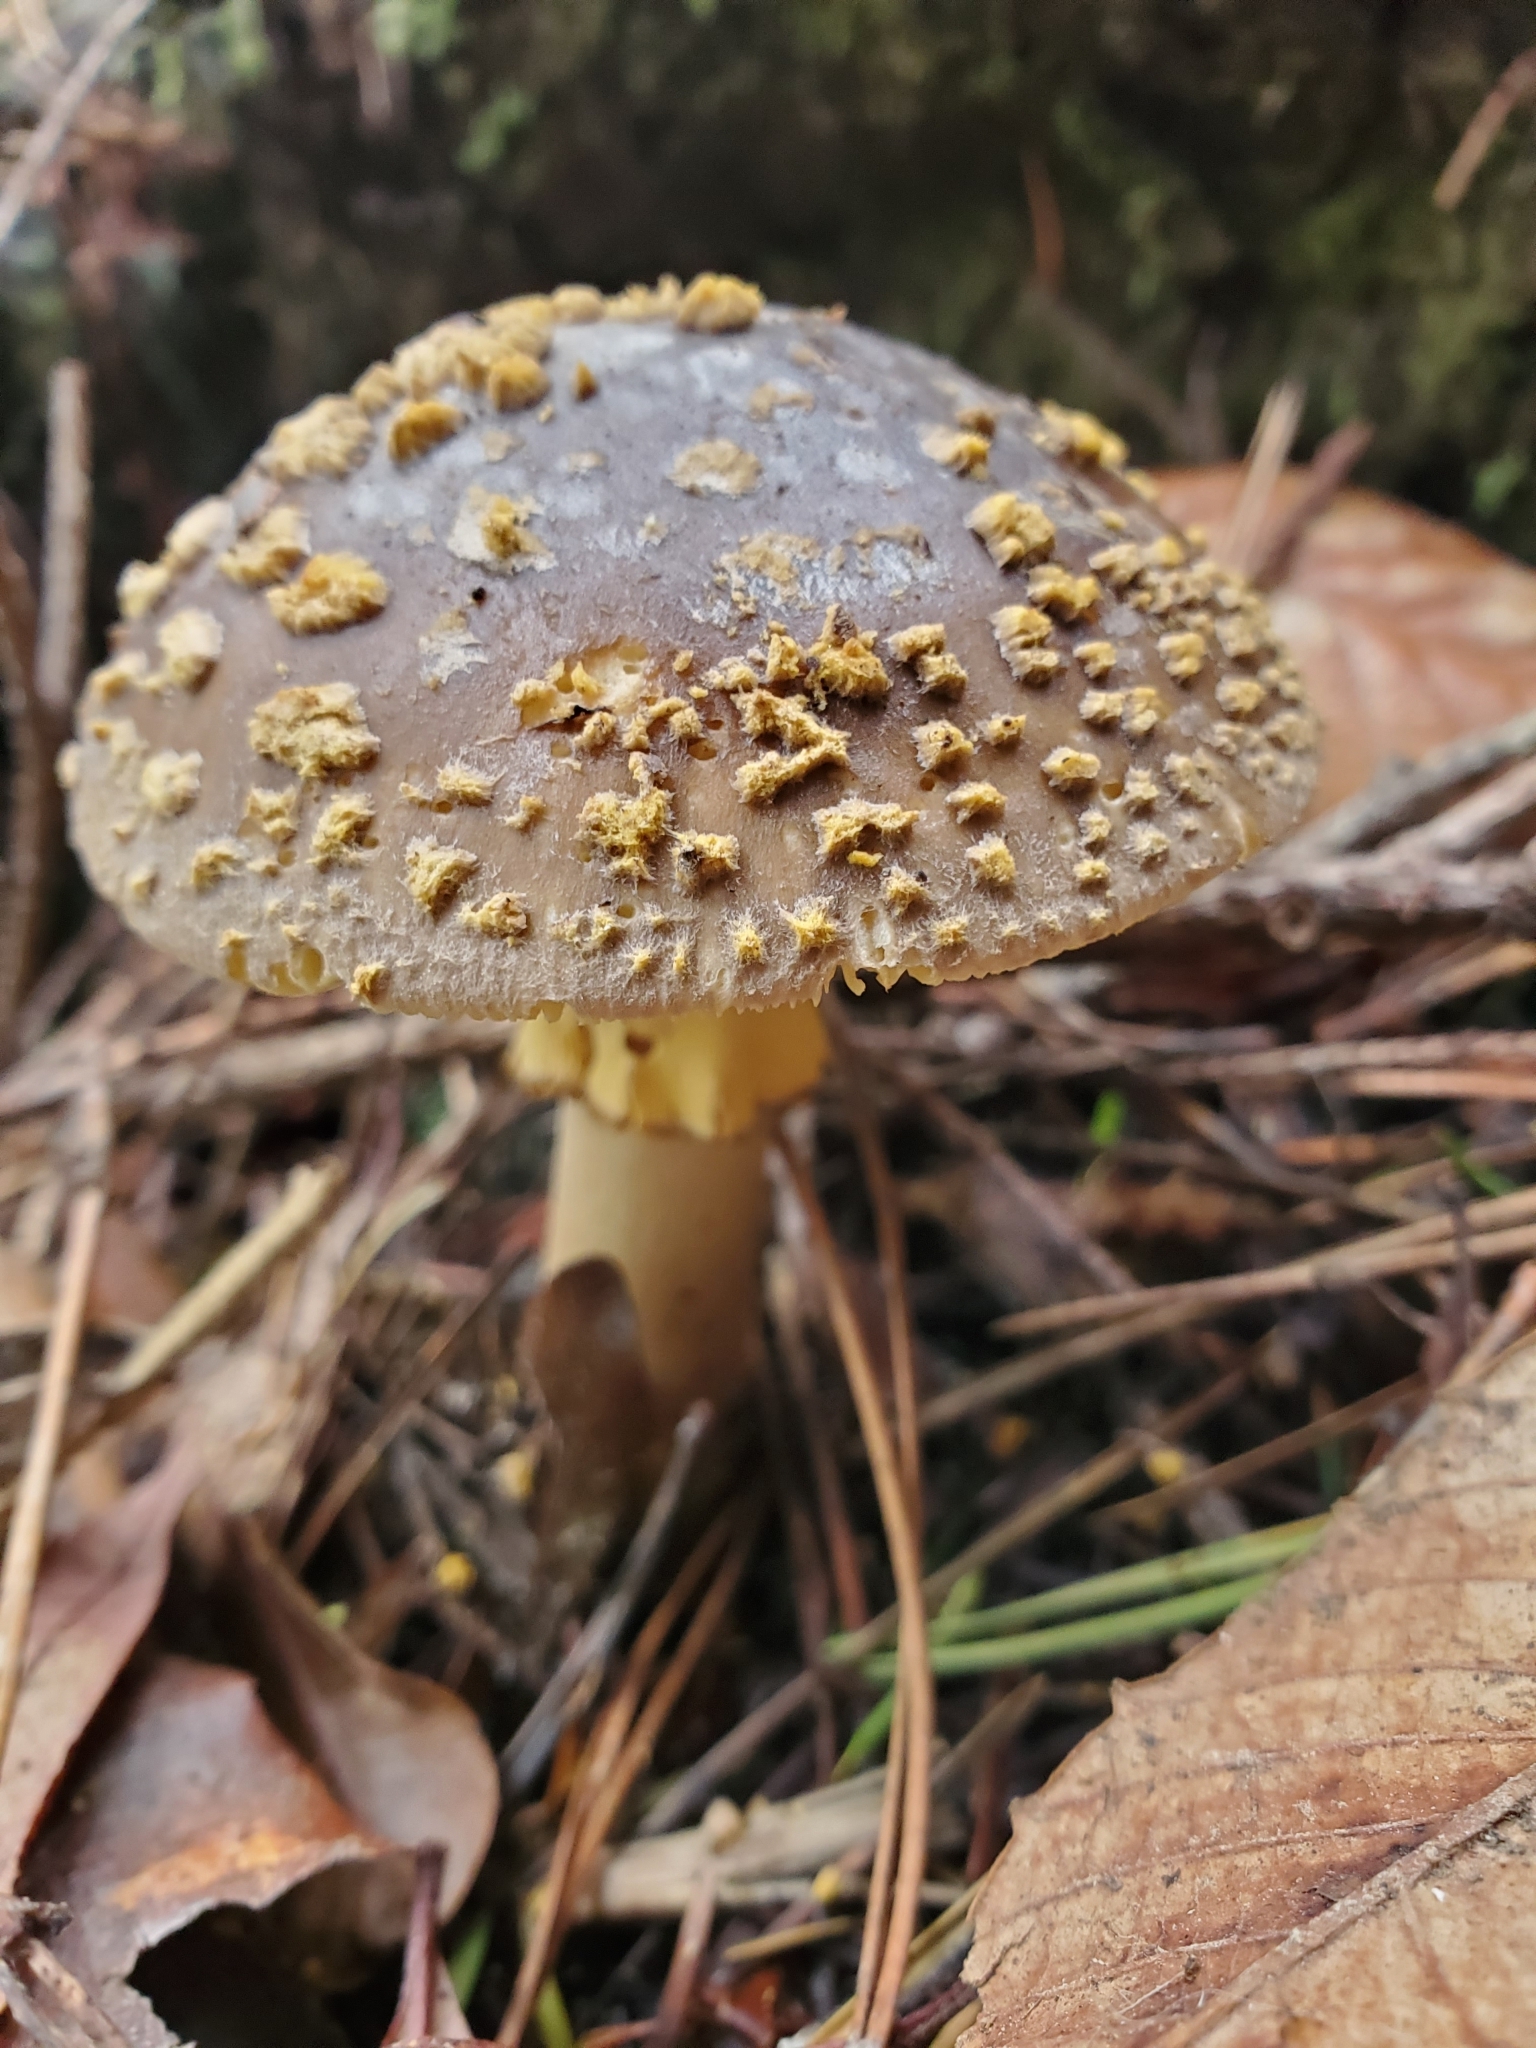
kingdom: Fungi
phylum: Basidiomycota
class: Agaricomycetes
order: Agaricales
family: Amanitaceae
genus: Amanita
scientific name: Amanita augusta
